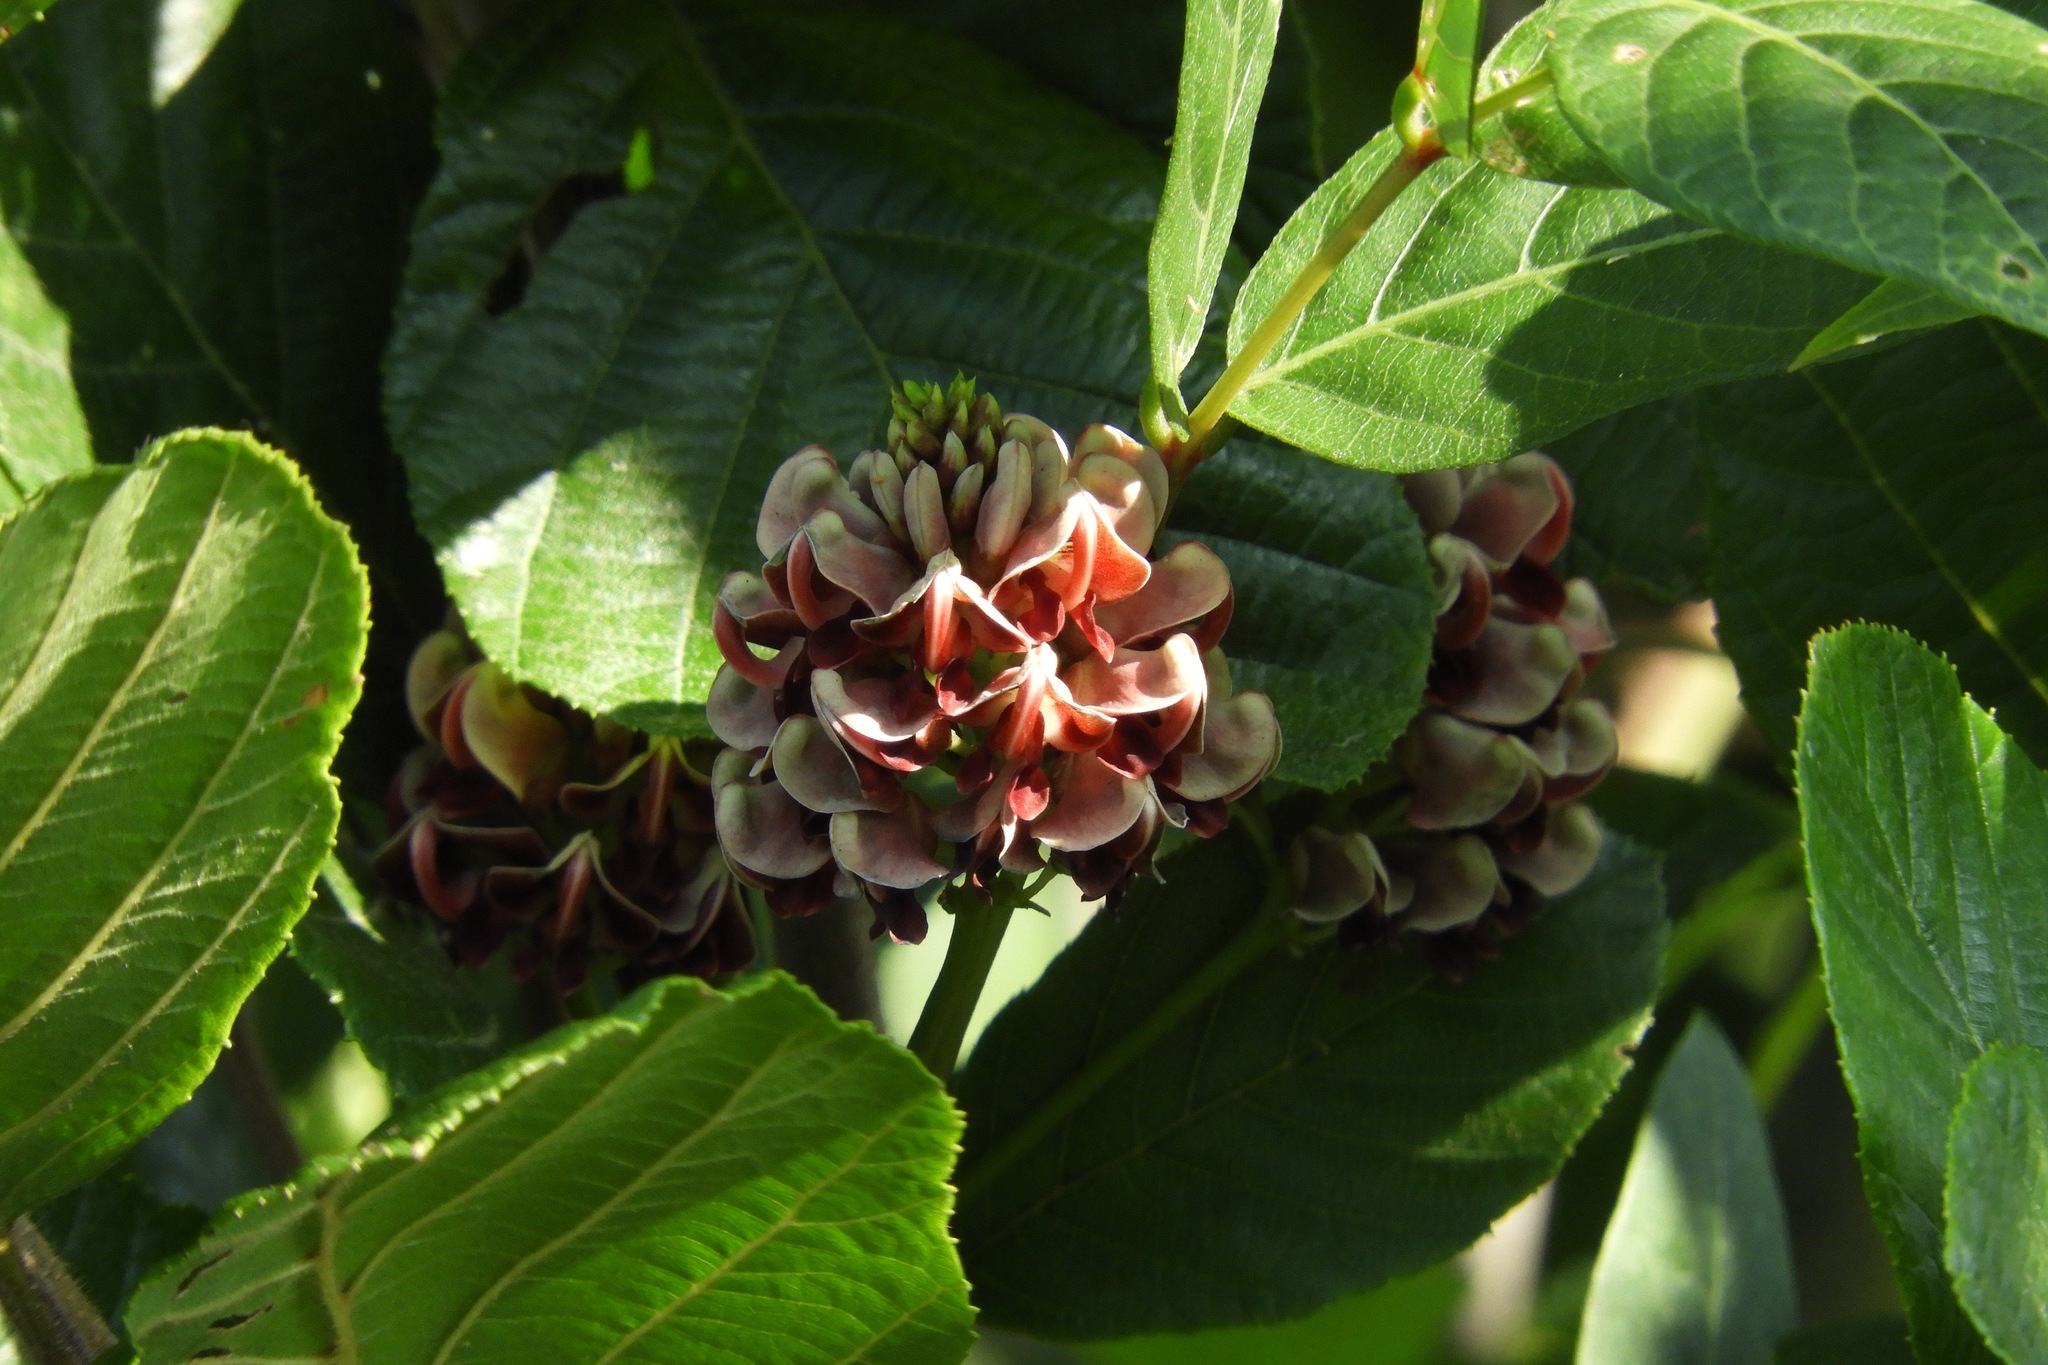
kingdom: Plantae
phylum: Tracheophyta
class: Magnoliopsida
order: Fabales
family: Fabaceae
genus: Apios
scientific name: Apios americana
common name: American potato-bean
